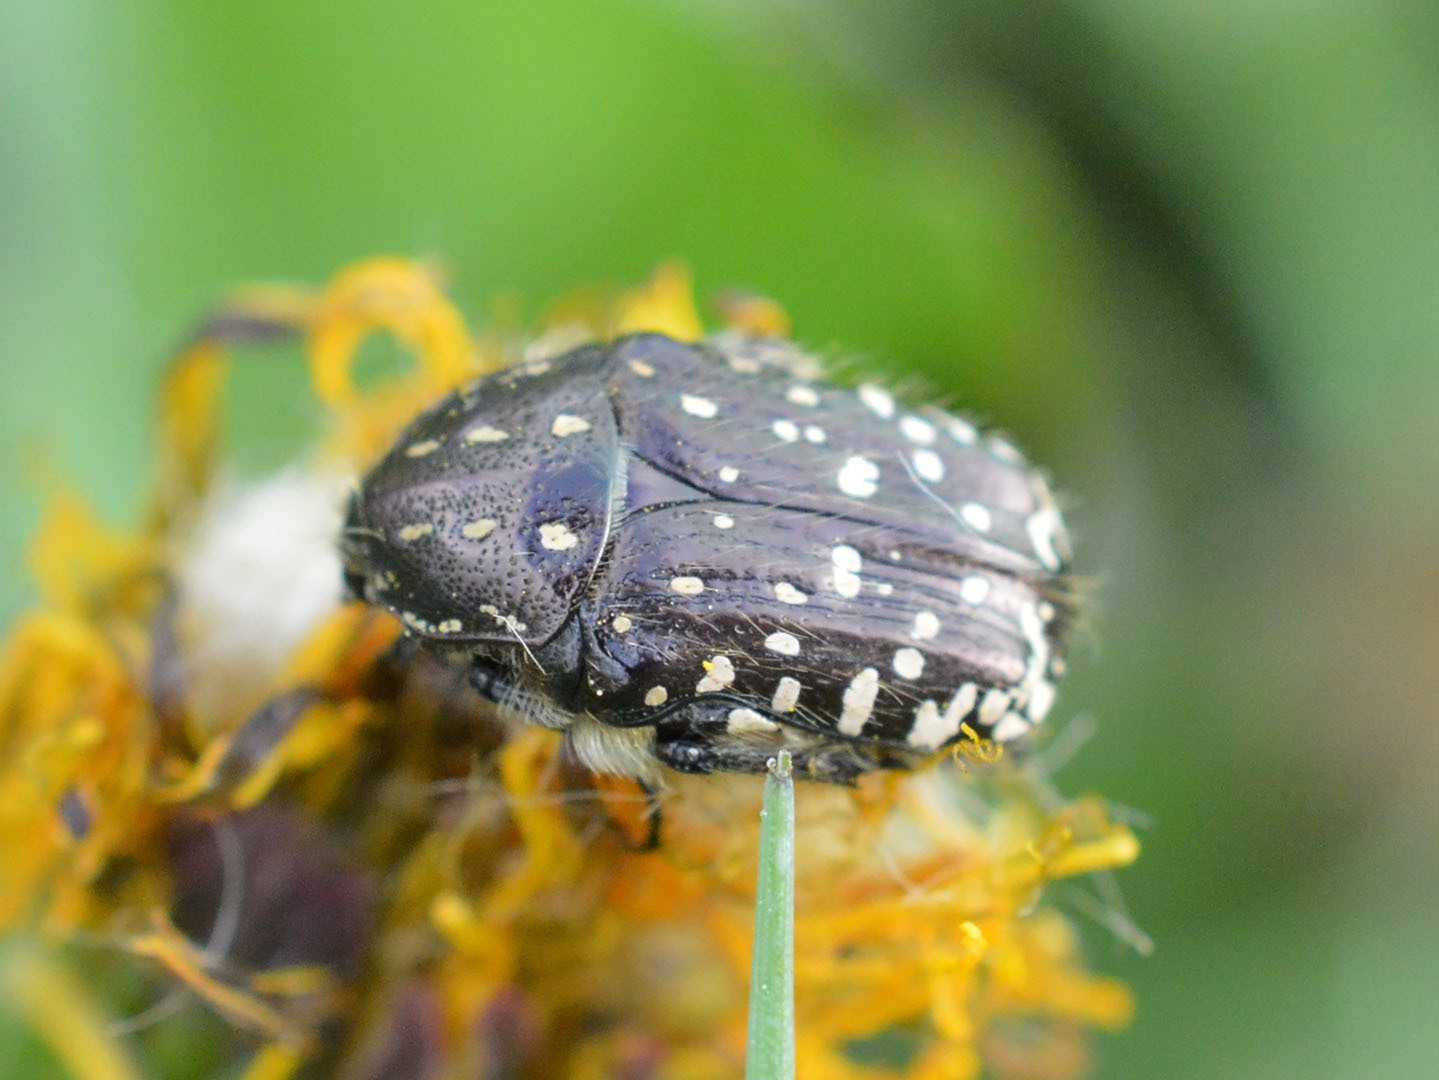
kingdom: Animalia
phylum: Arthropoda
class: Insecta
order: Coleoptera
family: Scarabaeidae
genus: Oxythyrea
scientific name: Oxythyrea funesta
